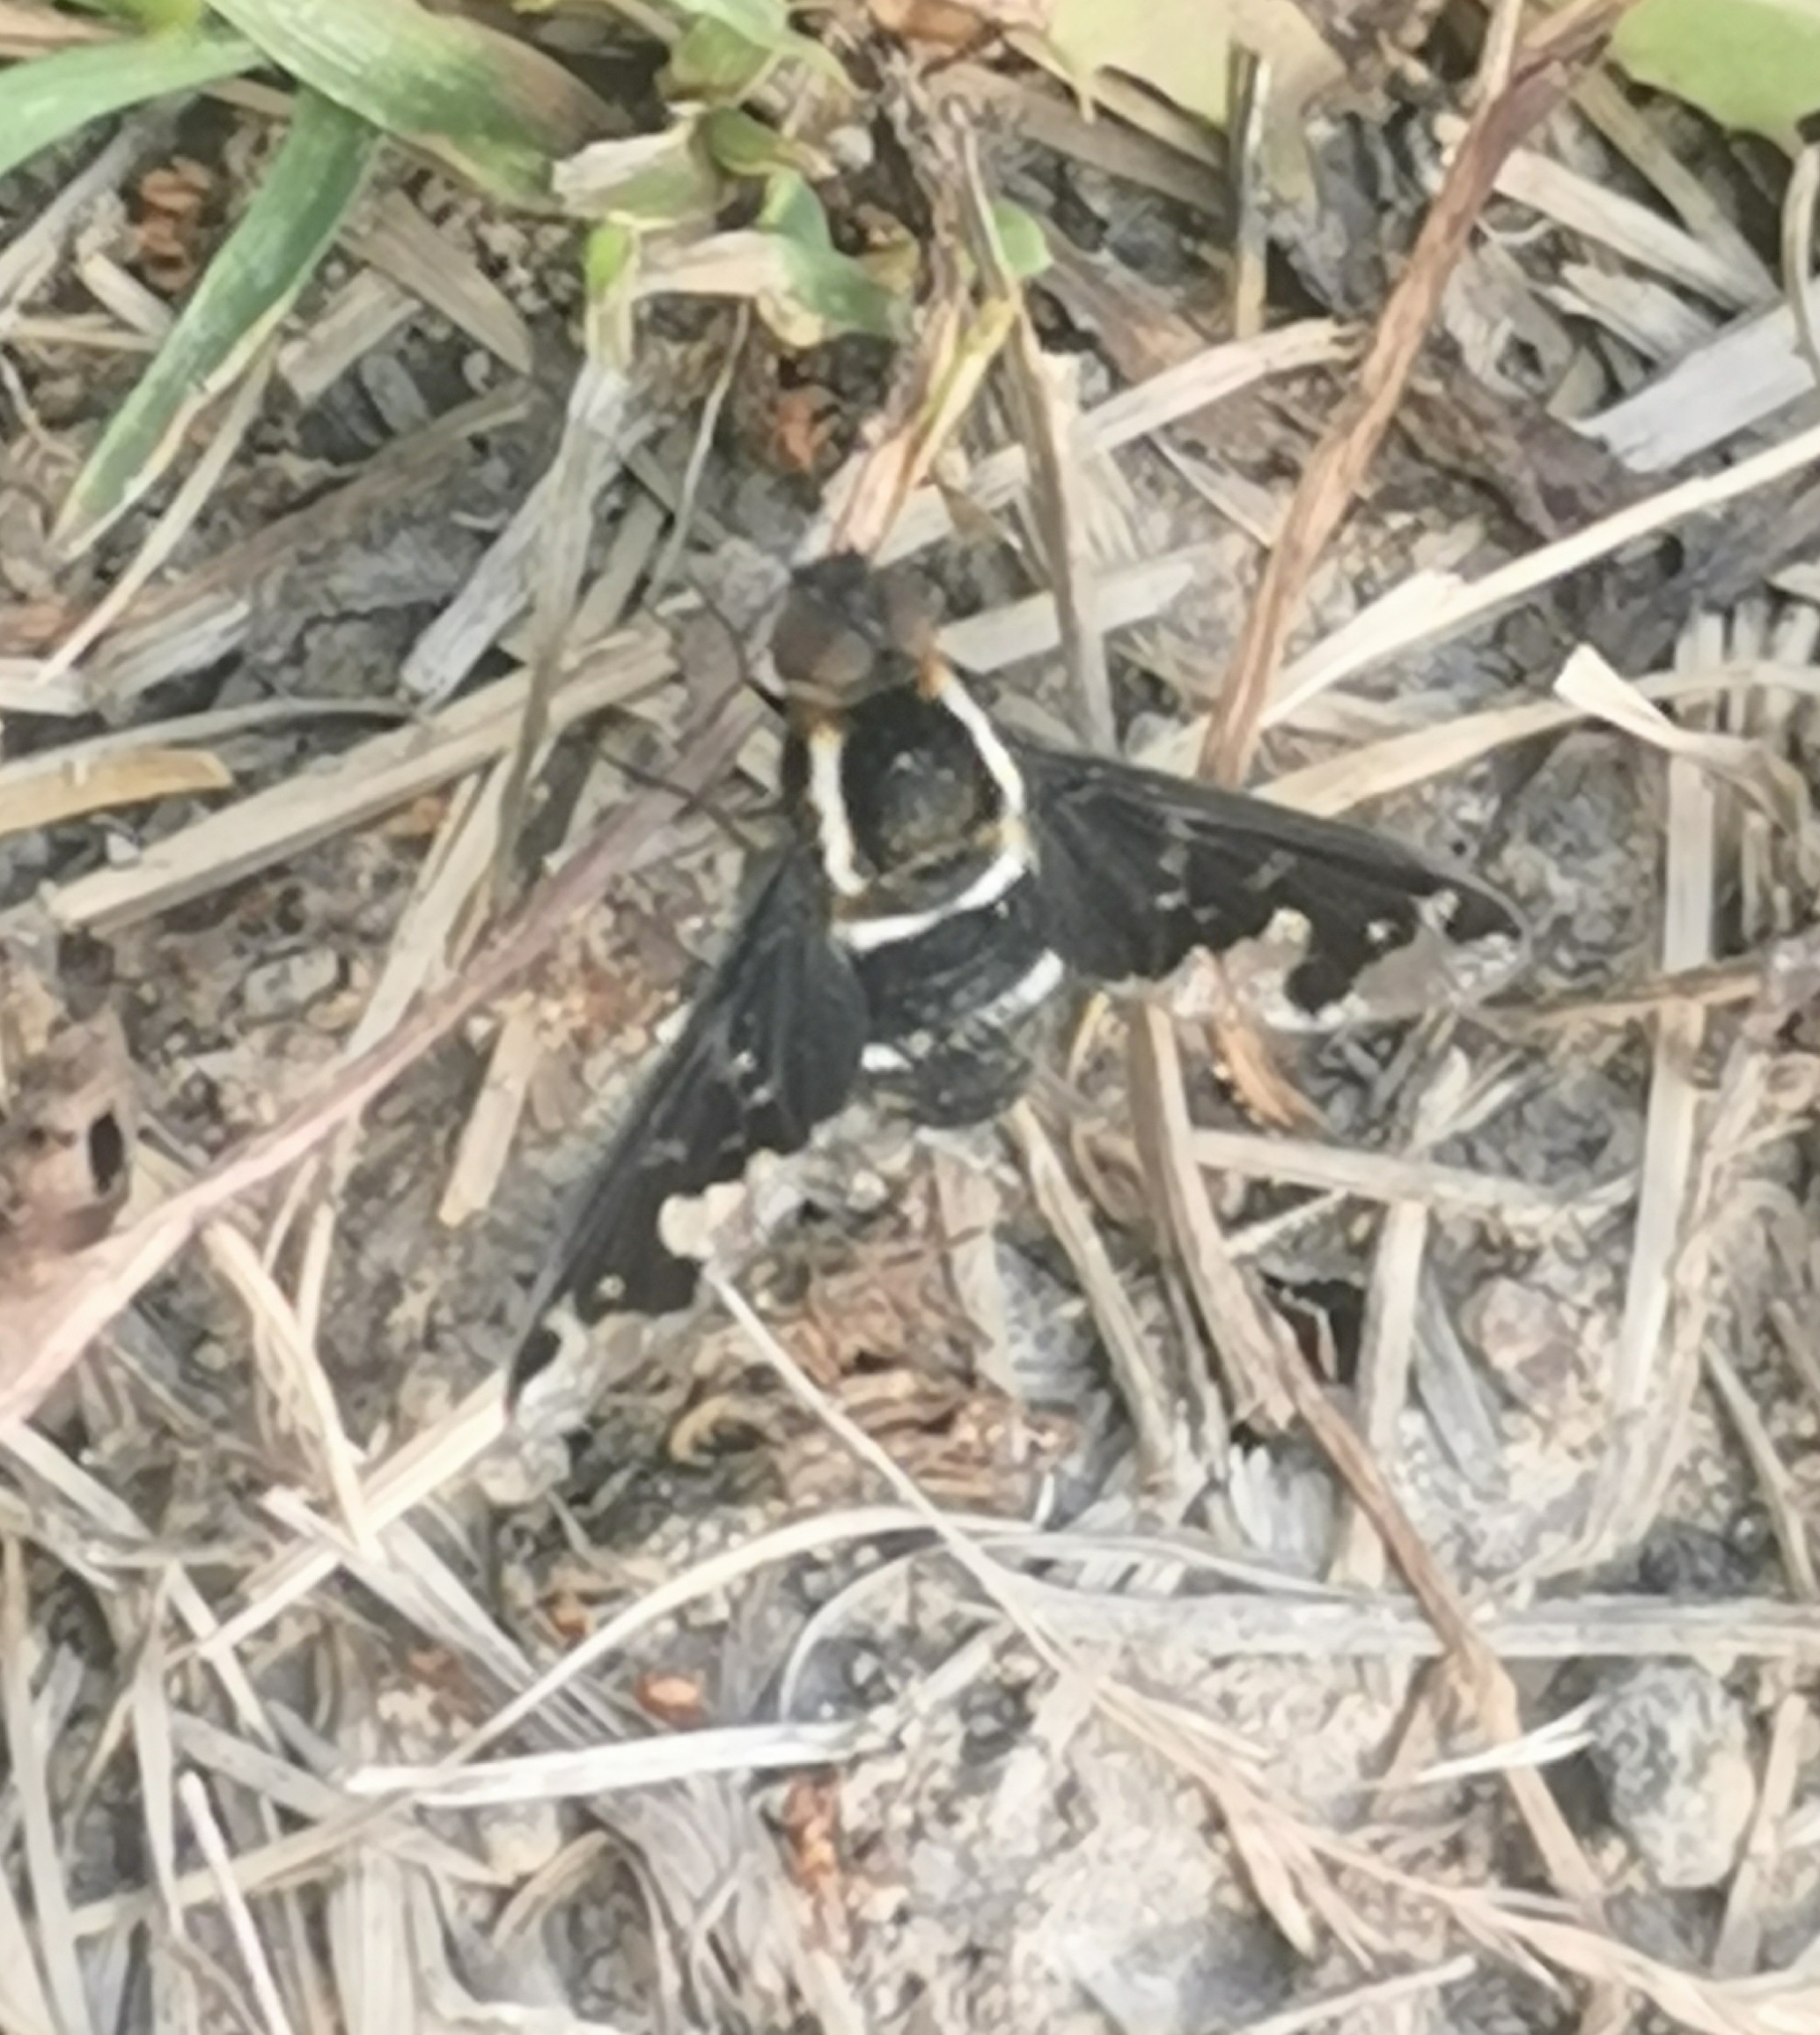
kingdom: Animalia
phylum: Arthropoda
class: Insecta
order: Diptera
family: Bombyliidae
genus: Hemipenthes
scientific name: Hemipenthes maura
